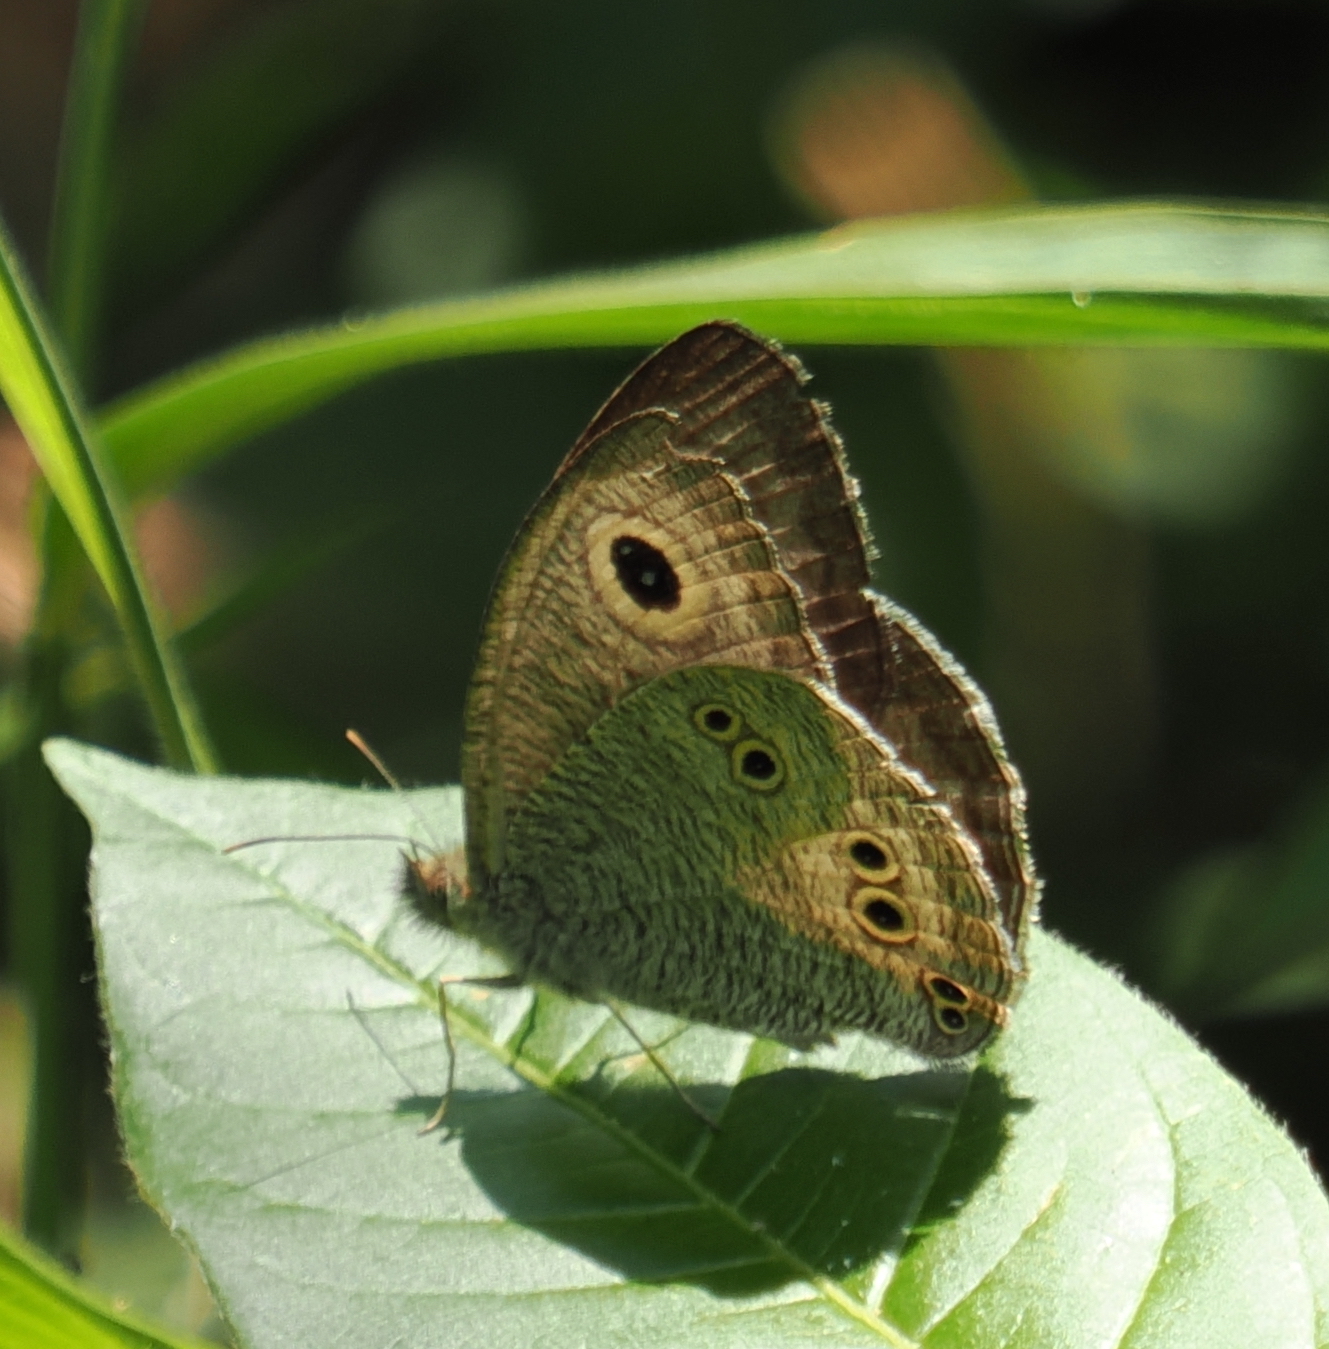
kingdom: Animalia
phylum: Arthropoda
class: Insecta
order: Lepidoptera
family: Nymphalidae
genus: Ypthima
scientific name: Ypthima dohertyi
